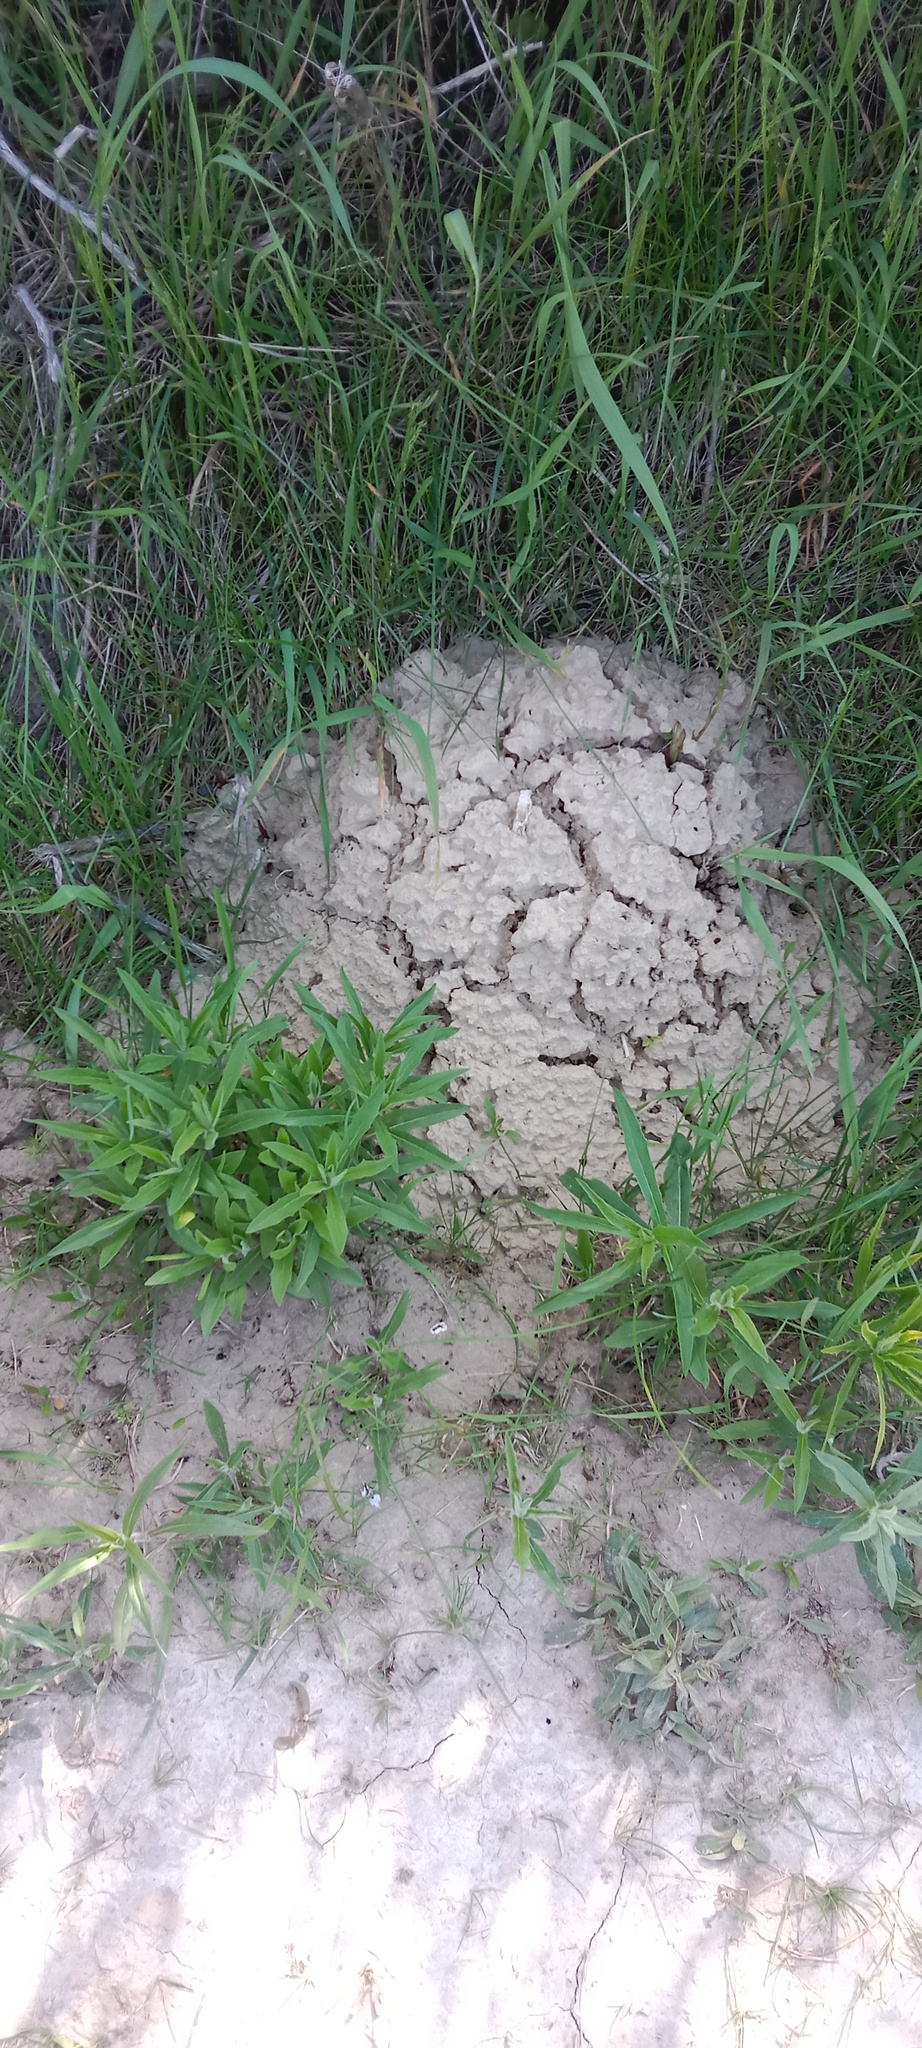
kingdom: Animalia
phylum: Chordata
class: Mammalia
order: Soricomorpha
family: Talpidae
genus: Talpa
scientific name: Talpa europaea
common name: European mole
